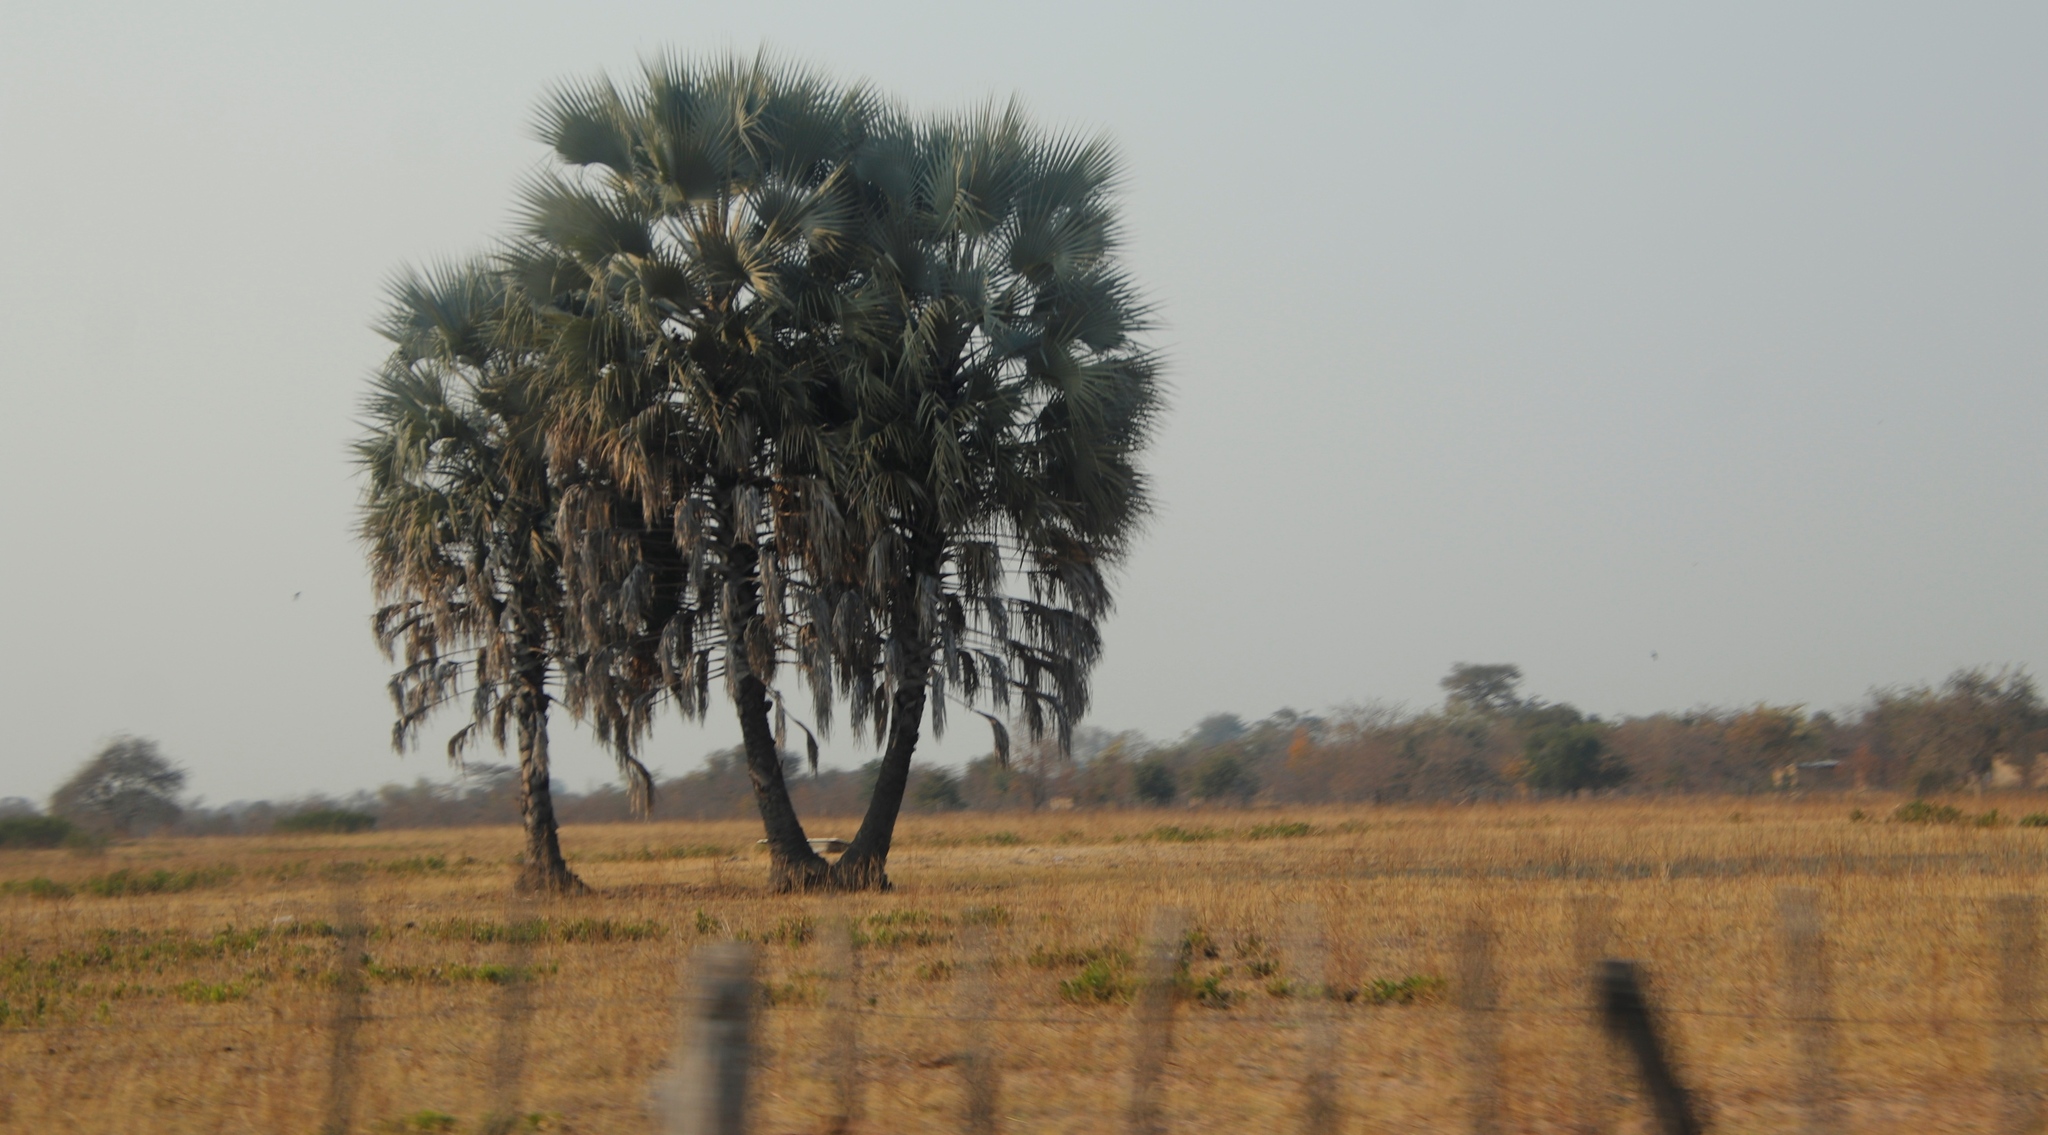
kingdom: Plantae
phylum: Tracheophyta
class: Liliopsida
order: Arecales
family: Arecaceae
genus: Hyphaene
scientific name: Hyphaene petersiana
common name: African ivory nut palm
